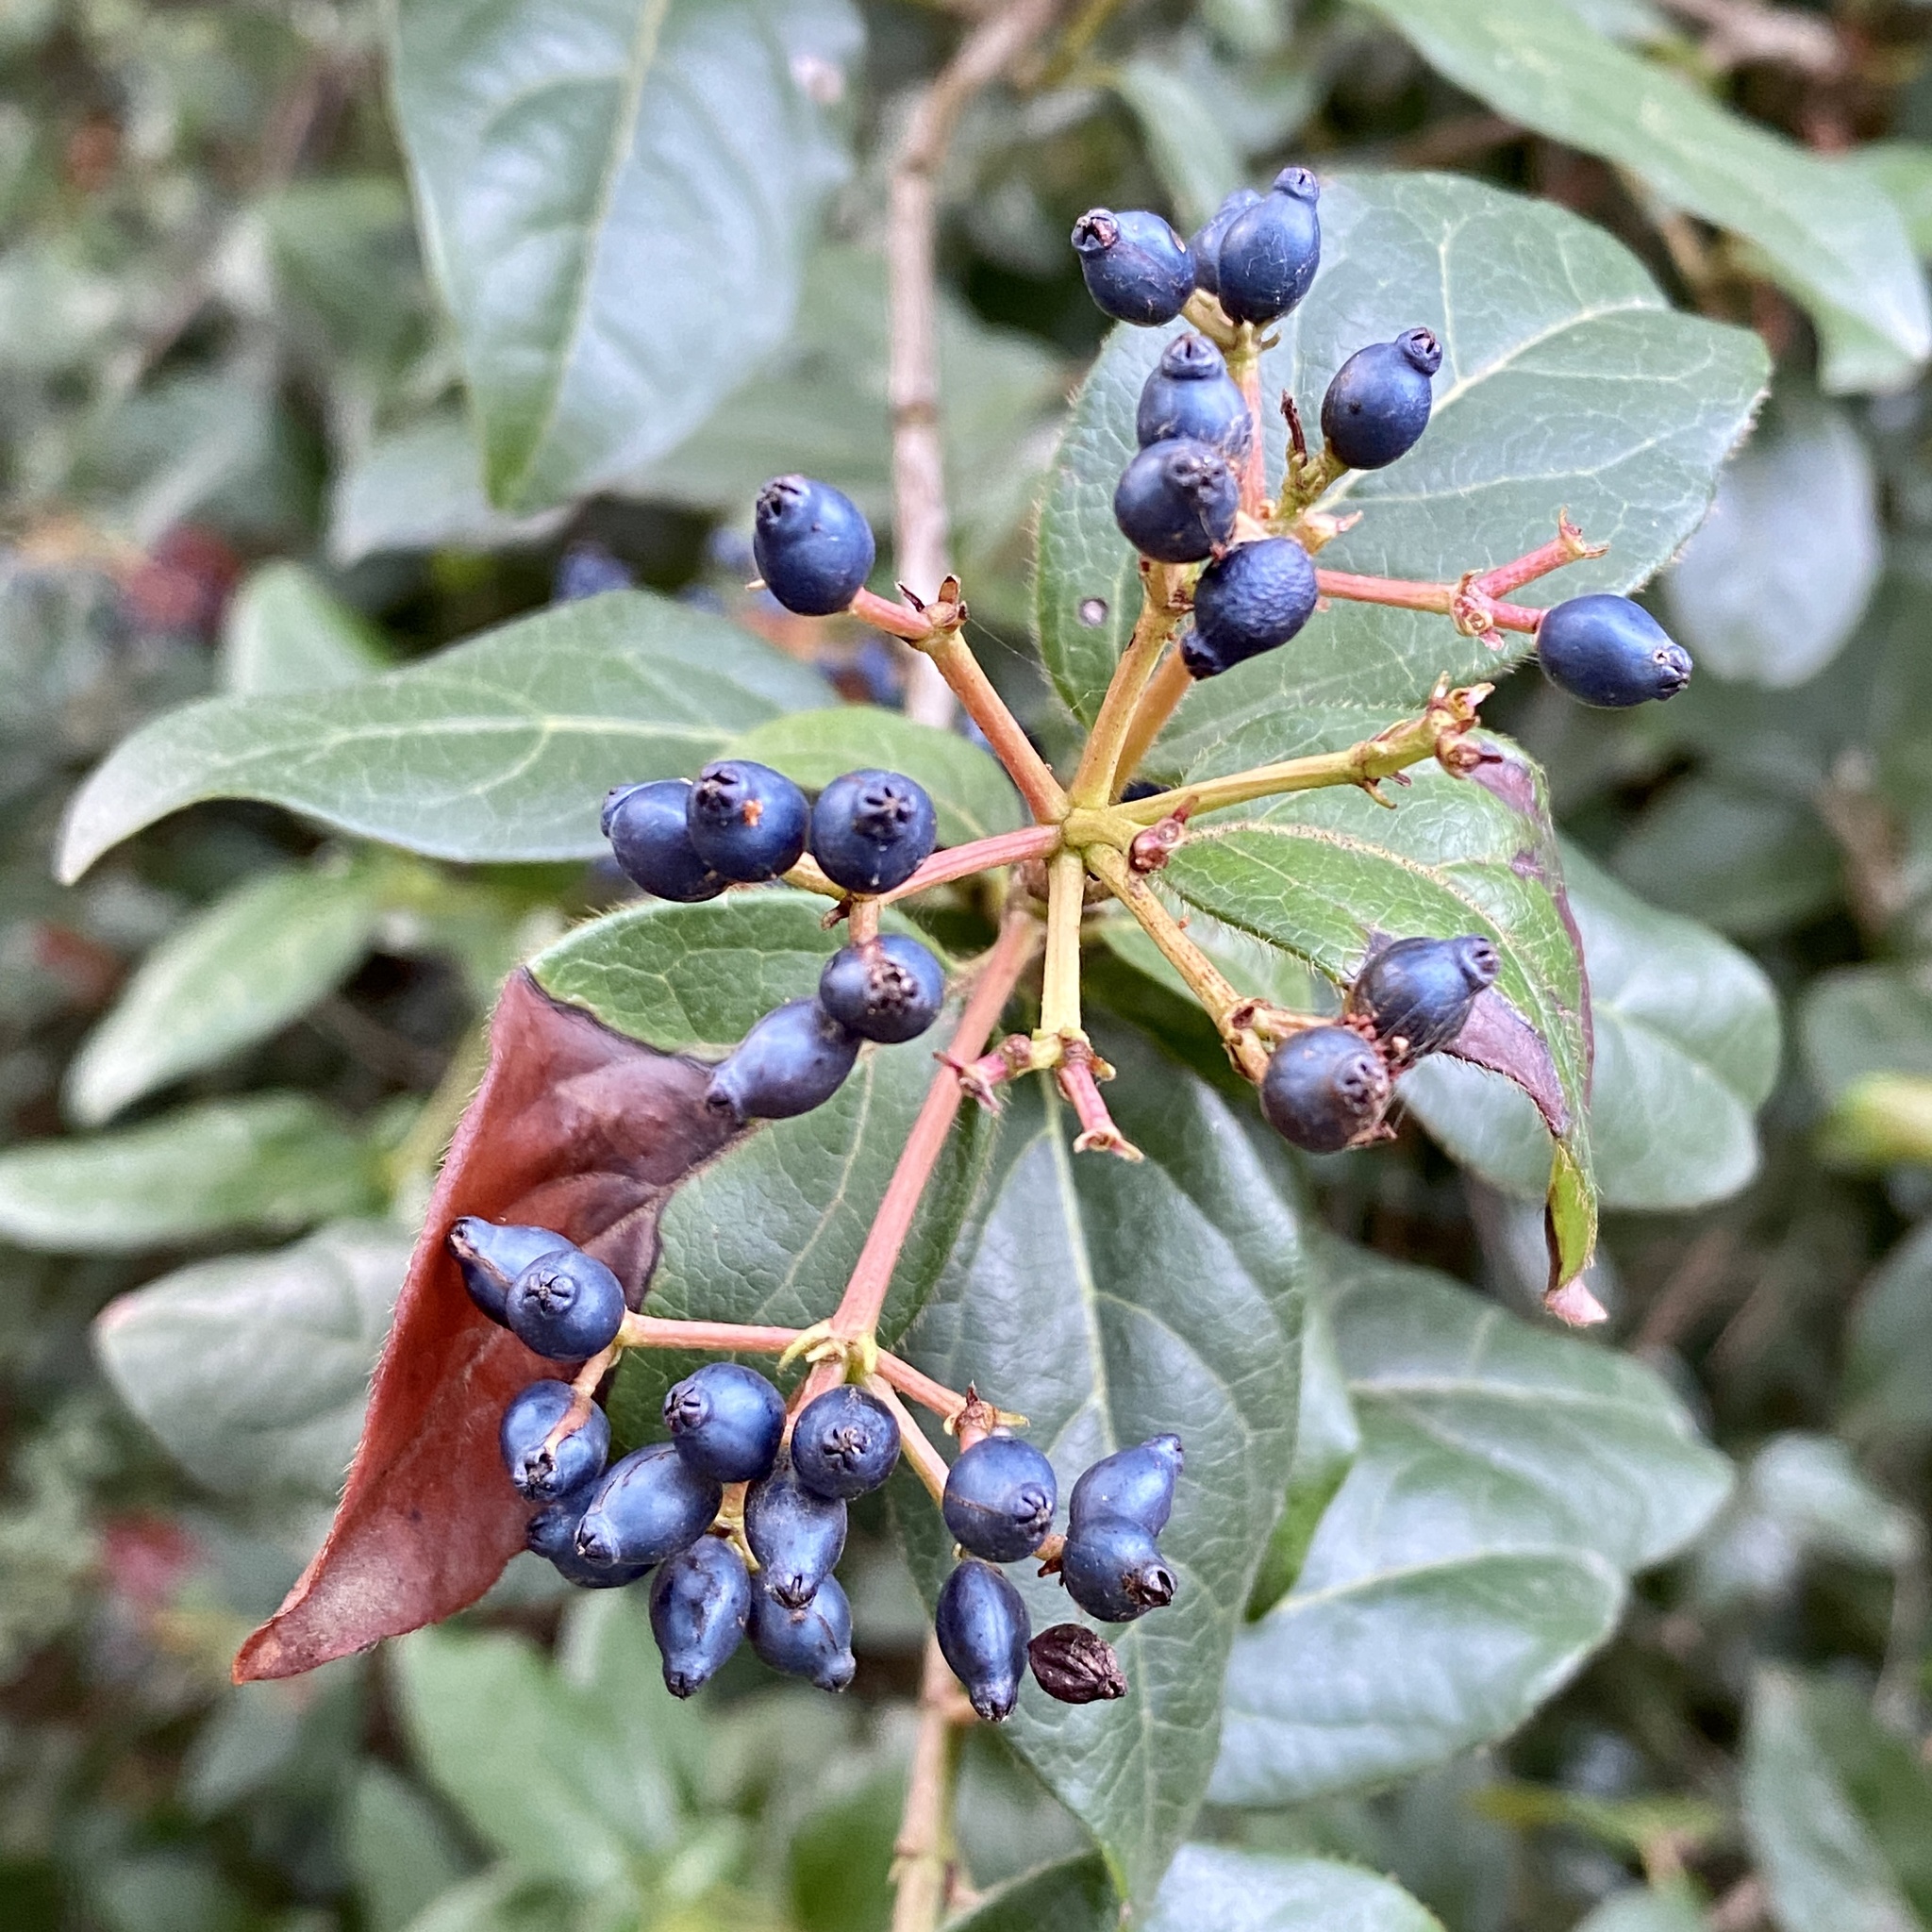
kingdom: Plantae
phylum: Tracheophyta
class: Magnoliopsida
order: Dipsacales
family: Viburnaceae
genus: Viburnum
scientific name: Viburnum tinus
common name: Laurustinus
